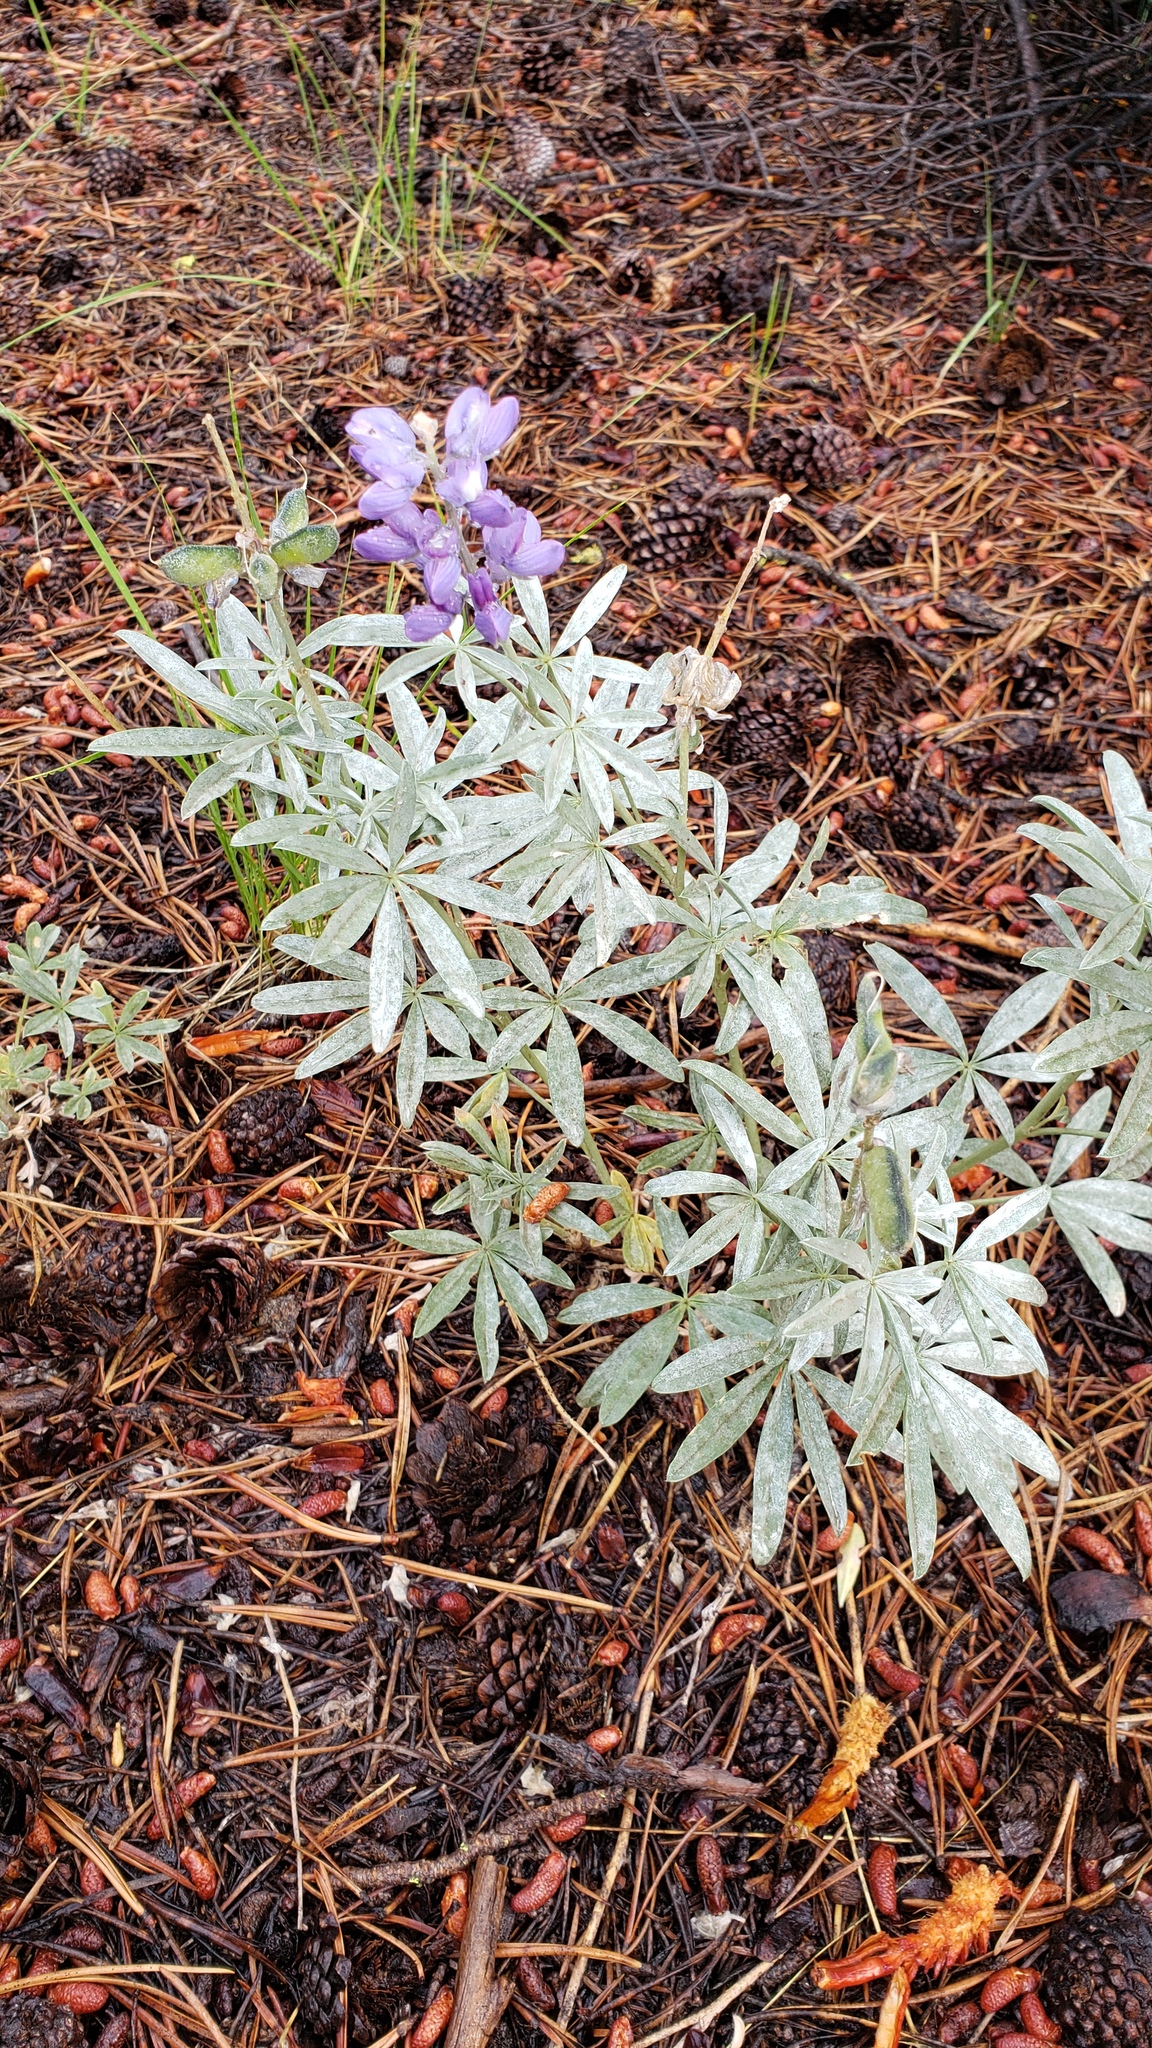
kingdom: Plantae
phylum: Tracheophyta
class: Magnoliopsida
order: Fabales
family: Fabaceae
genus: Lupinus
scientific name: Lupinus obtusilobus
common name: Blunt-lobe lupine
